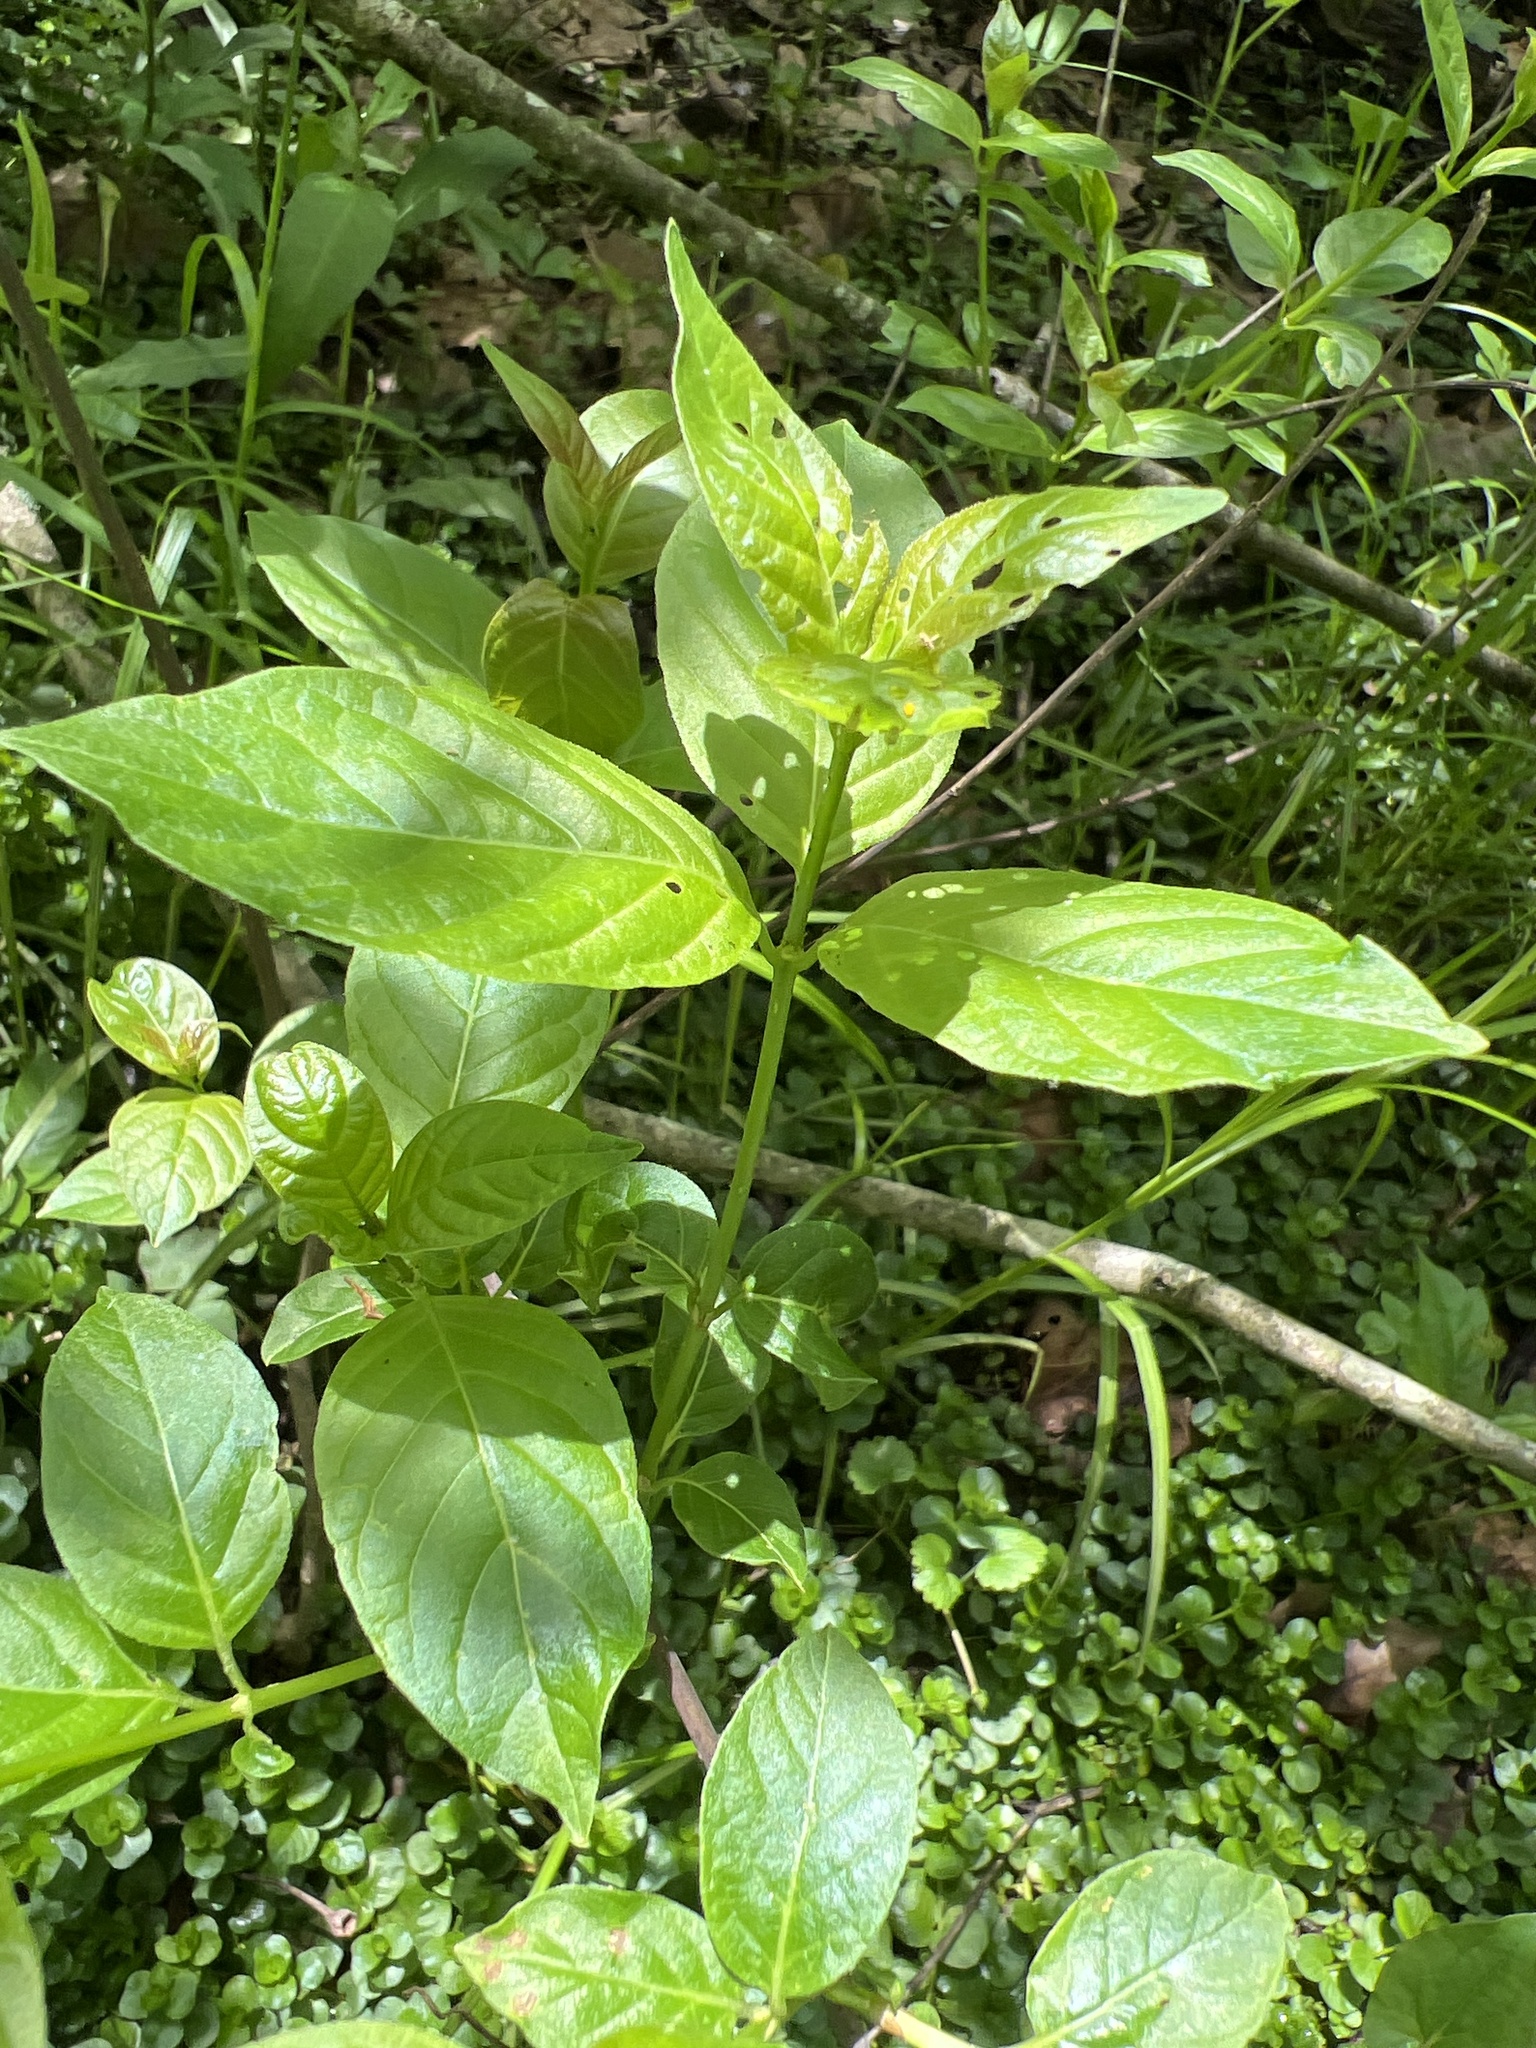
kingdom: Plantae
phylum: Tracheophyta
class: Magnoliopsida
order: Gentianales
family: Rubiaceae
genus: Cephalanthus
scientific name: Cephalanthus occidentalis
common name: Button-willow
